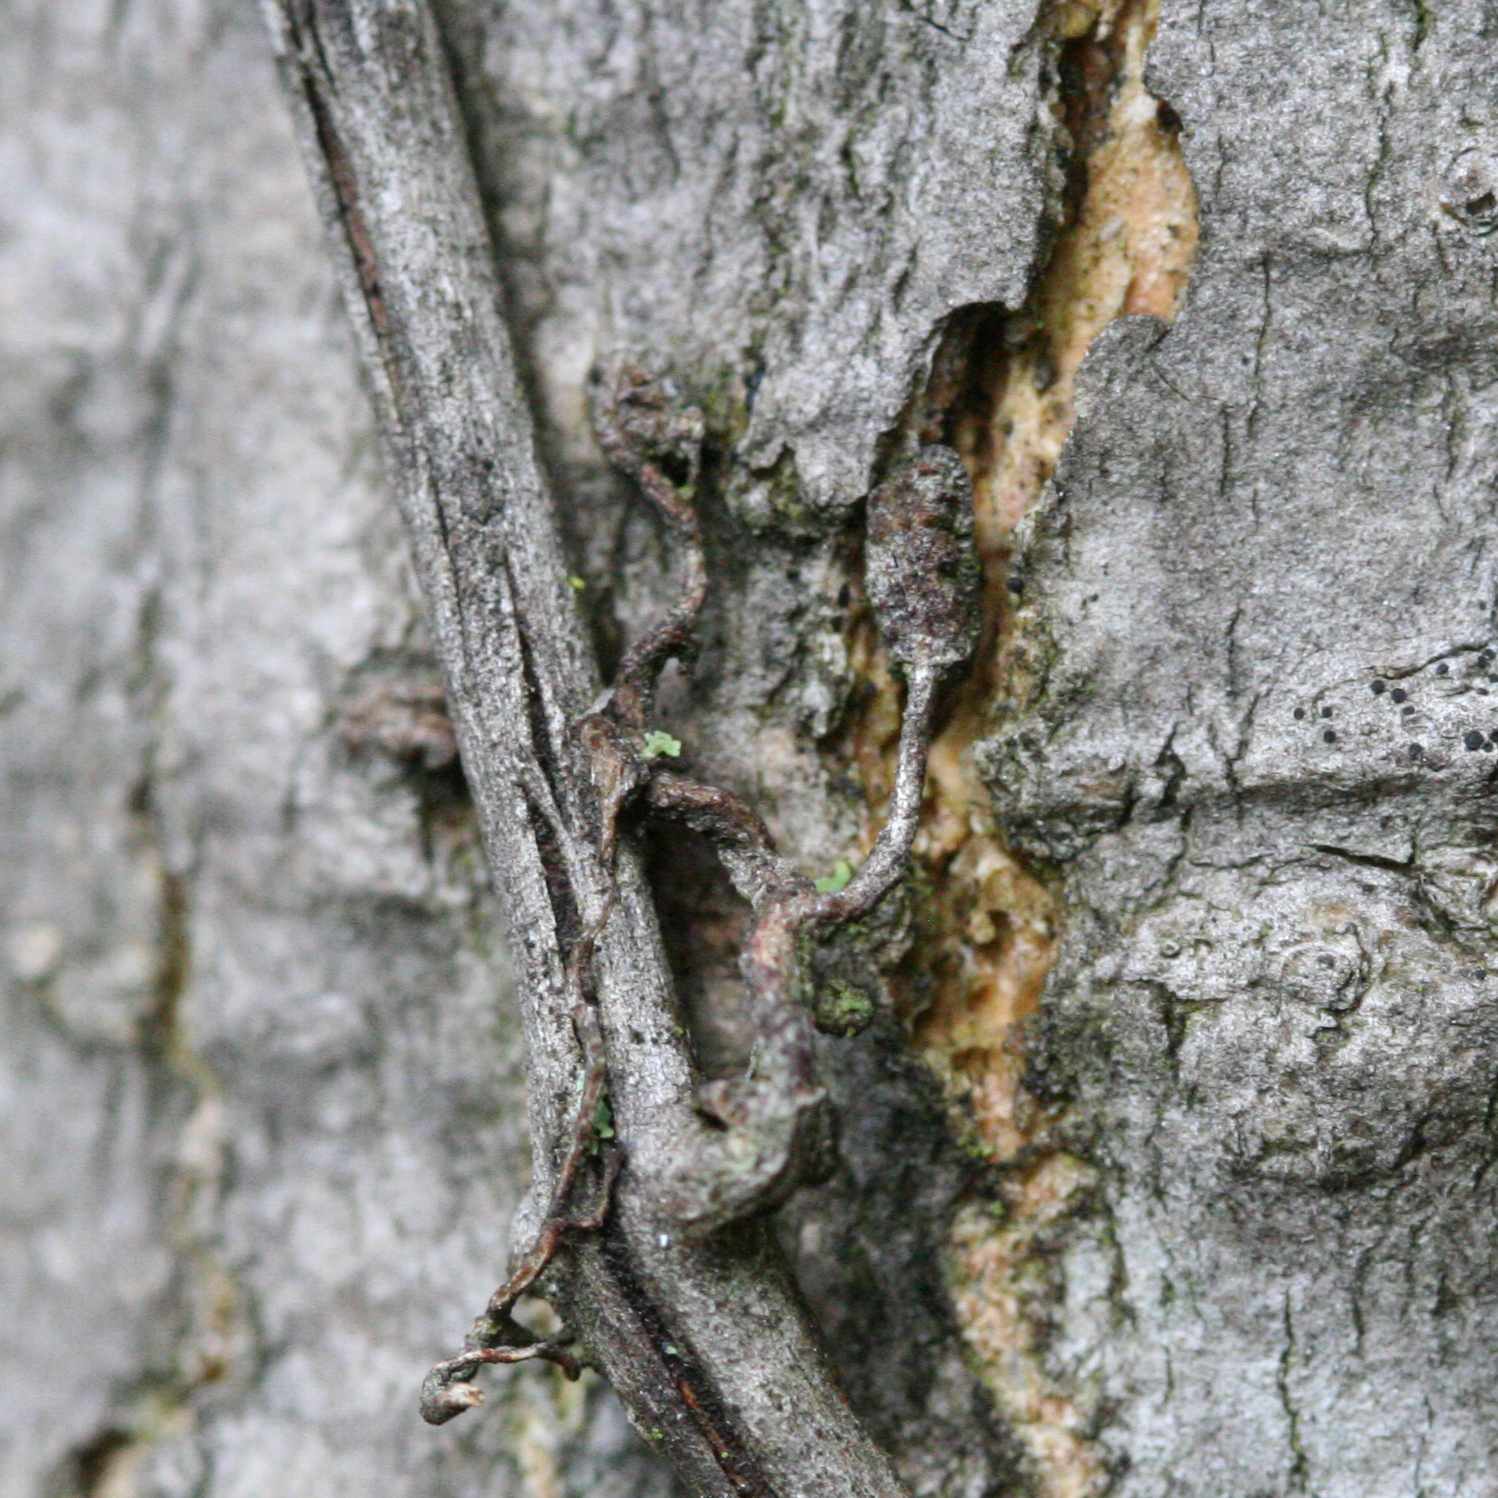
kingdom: Plantae
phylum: Tracheophyta
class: Magnoliopsida
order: Vitales
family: Vitaceae
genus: Parthenocissus
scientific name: Parthenocissus quinquefolia
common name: Virginia-creeper
